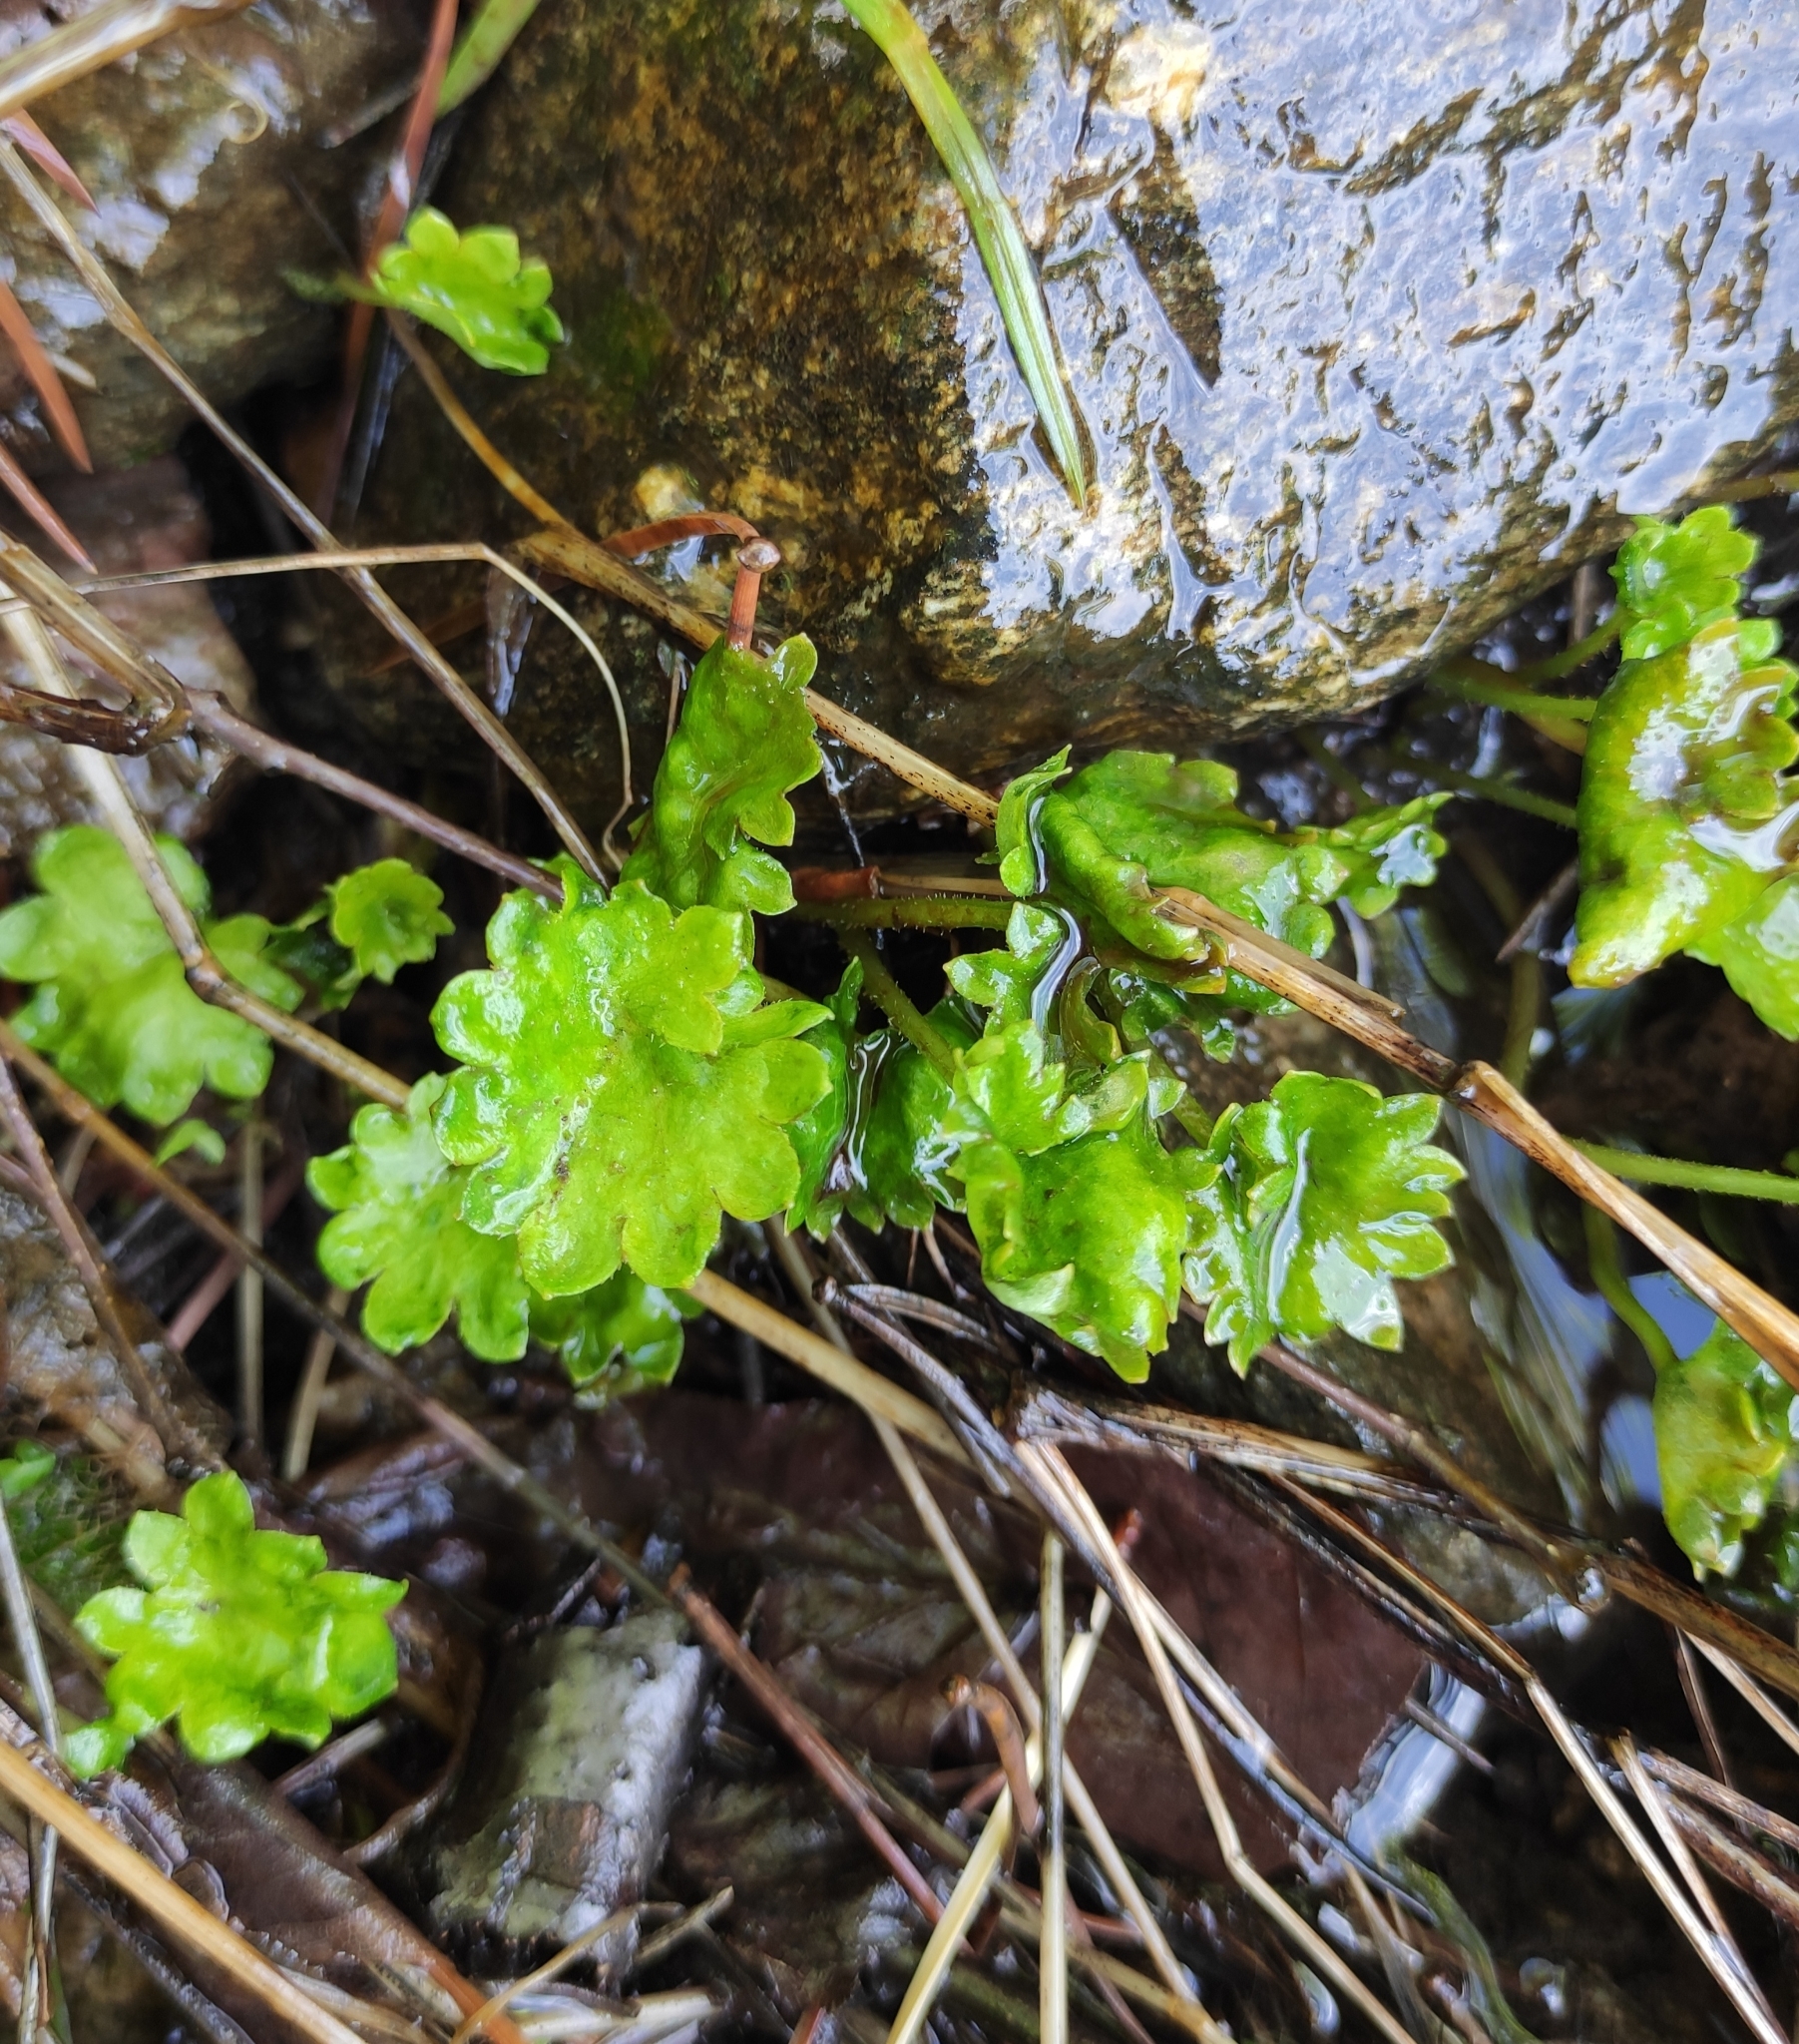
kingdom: Plantae
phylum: Tracheophyta
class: Magnoliopsida
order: Saxifragales
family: Saxifragaceae
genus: Micranthes
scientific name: Micranthes nelsoniana
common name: Nelson's saxifrage
